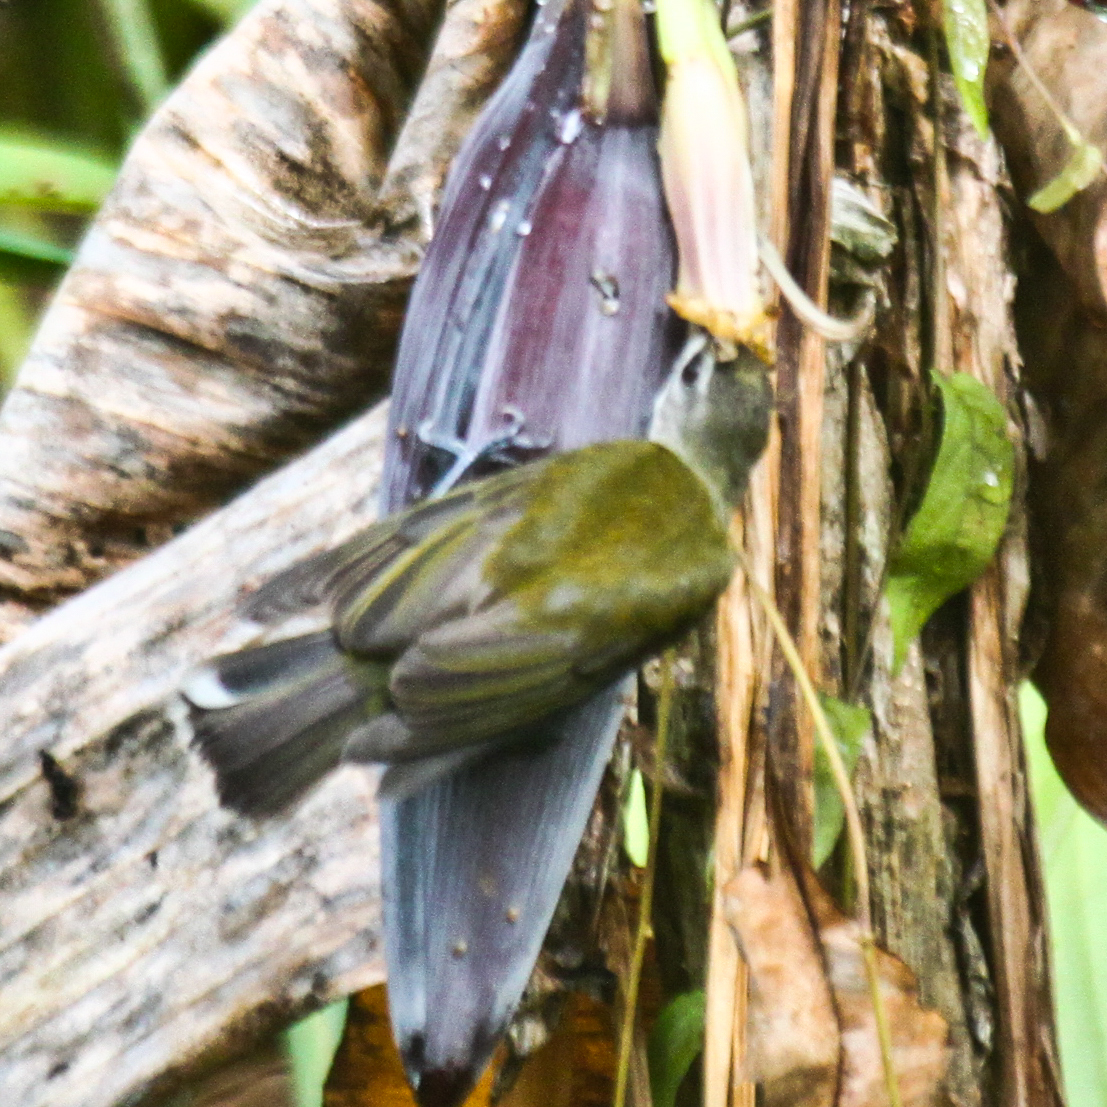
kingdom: Animalia
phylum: Chordata
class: Aves
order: Passeriformes
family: Nectariniidae
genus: Arachnothera
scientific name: Arachnothera longirostra
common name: Little spiderhunter
